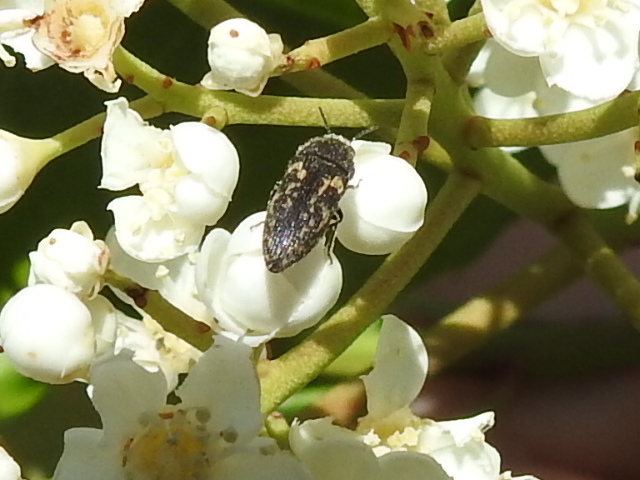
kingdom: Animalia
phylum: Arthropoda
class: Insecta
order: Coleoptera
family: Buprestidae
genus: Acmaeodera
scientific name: Acmaeodera neglecta
